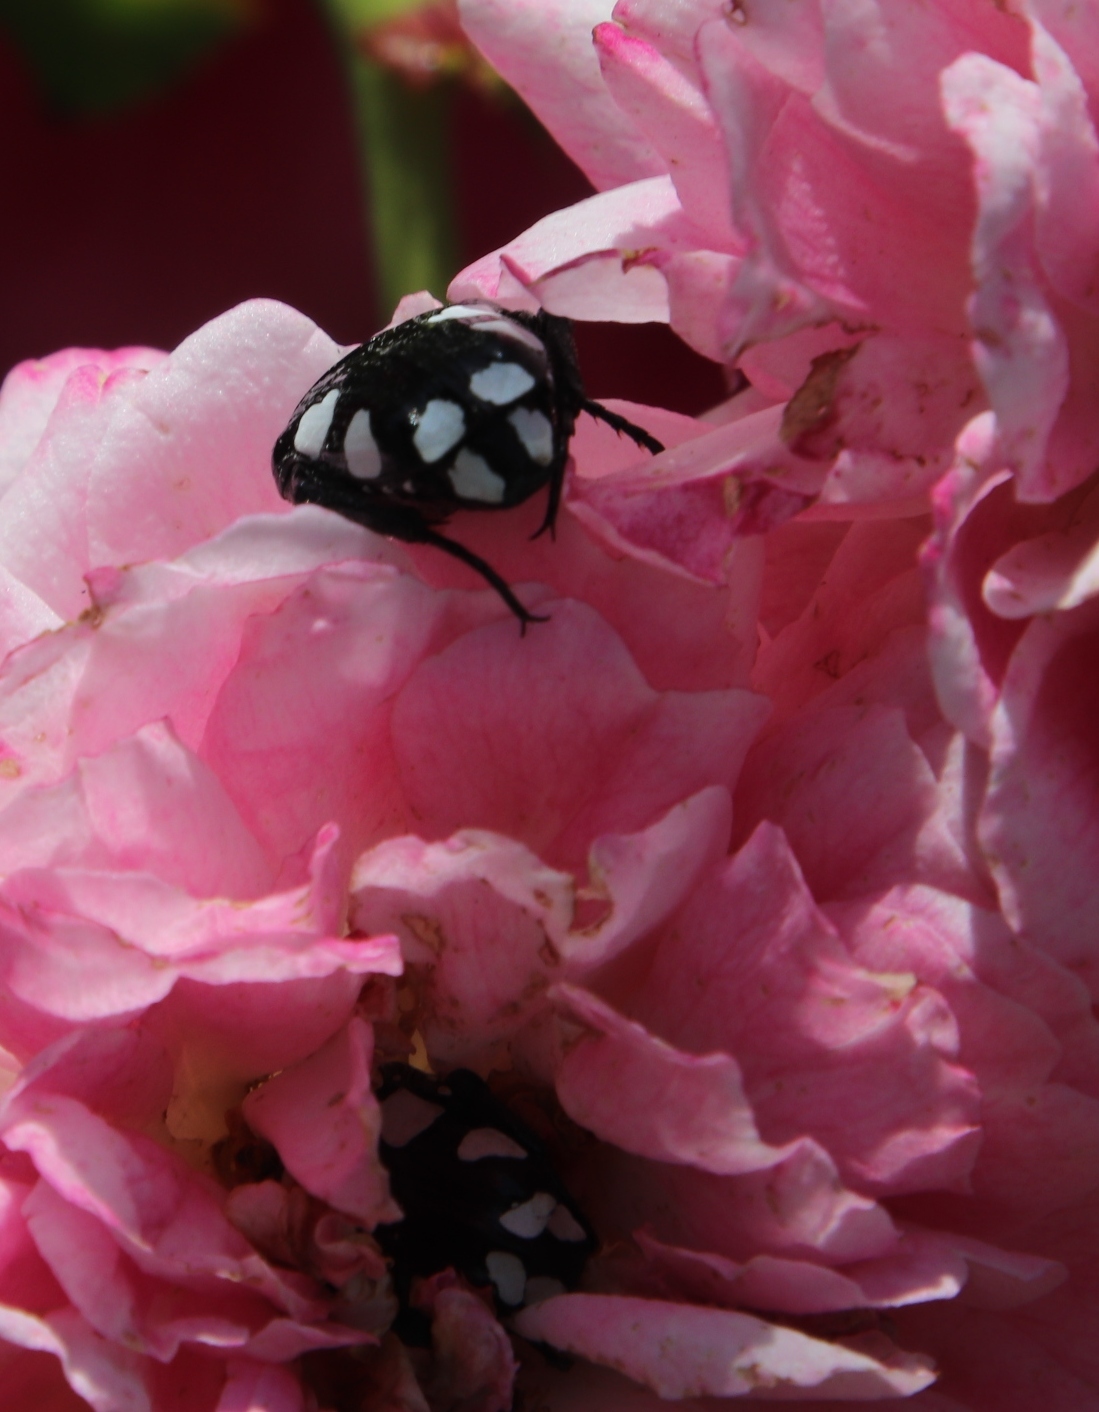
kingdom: Animalia
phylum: Arthropoda
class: Insecta
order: Coleoptera
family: Scarabaeidae
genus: Mausoleopsis
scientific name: Mausoleopsis amabilis
